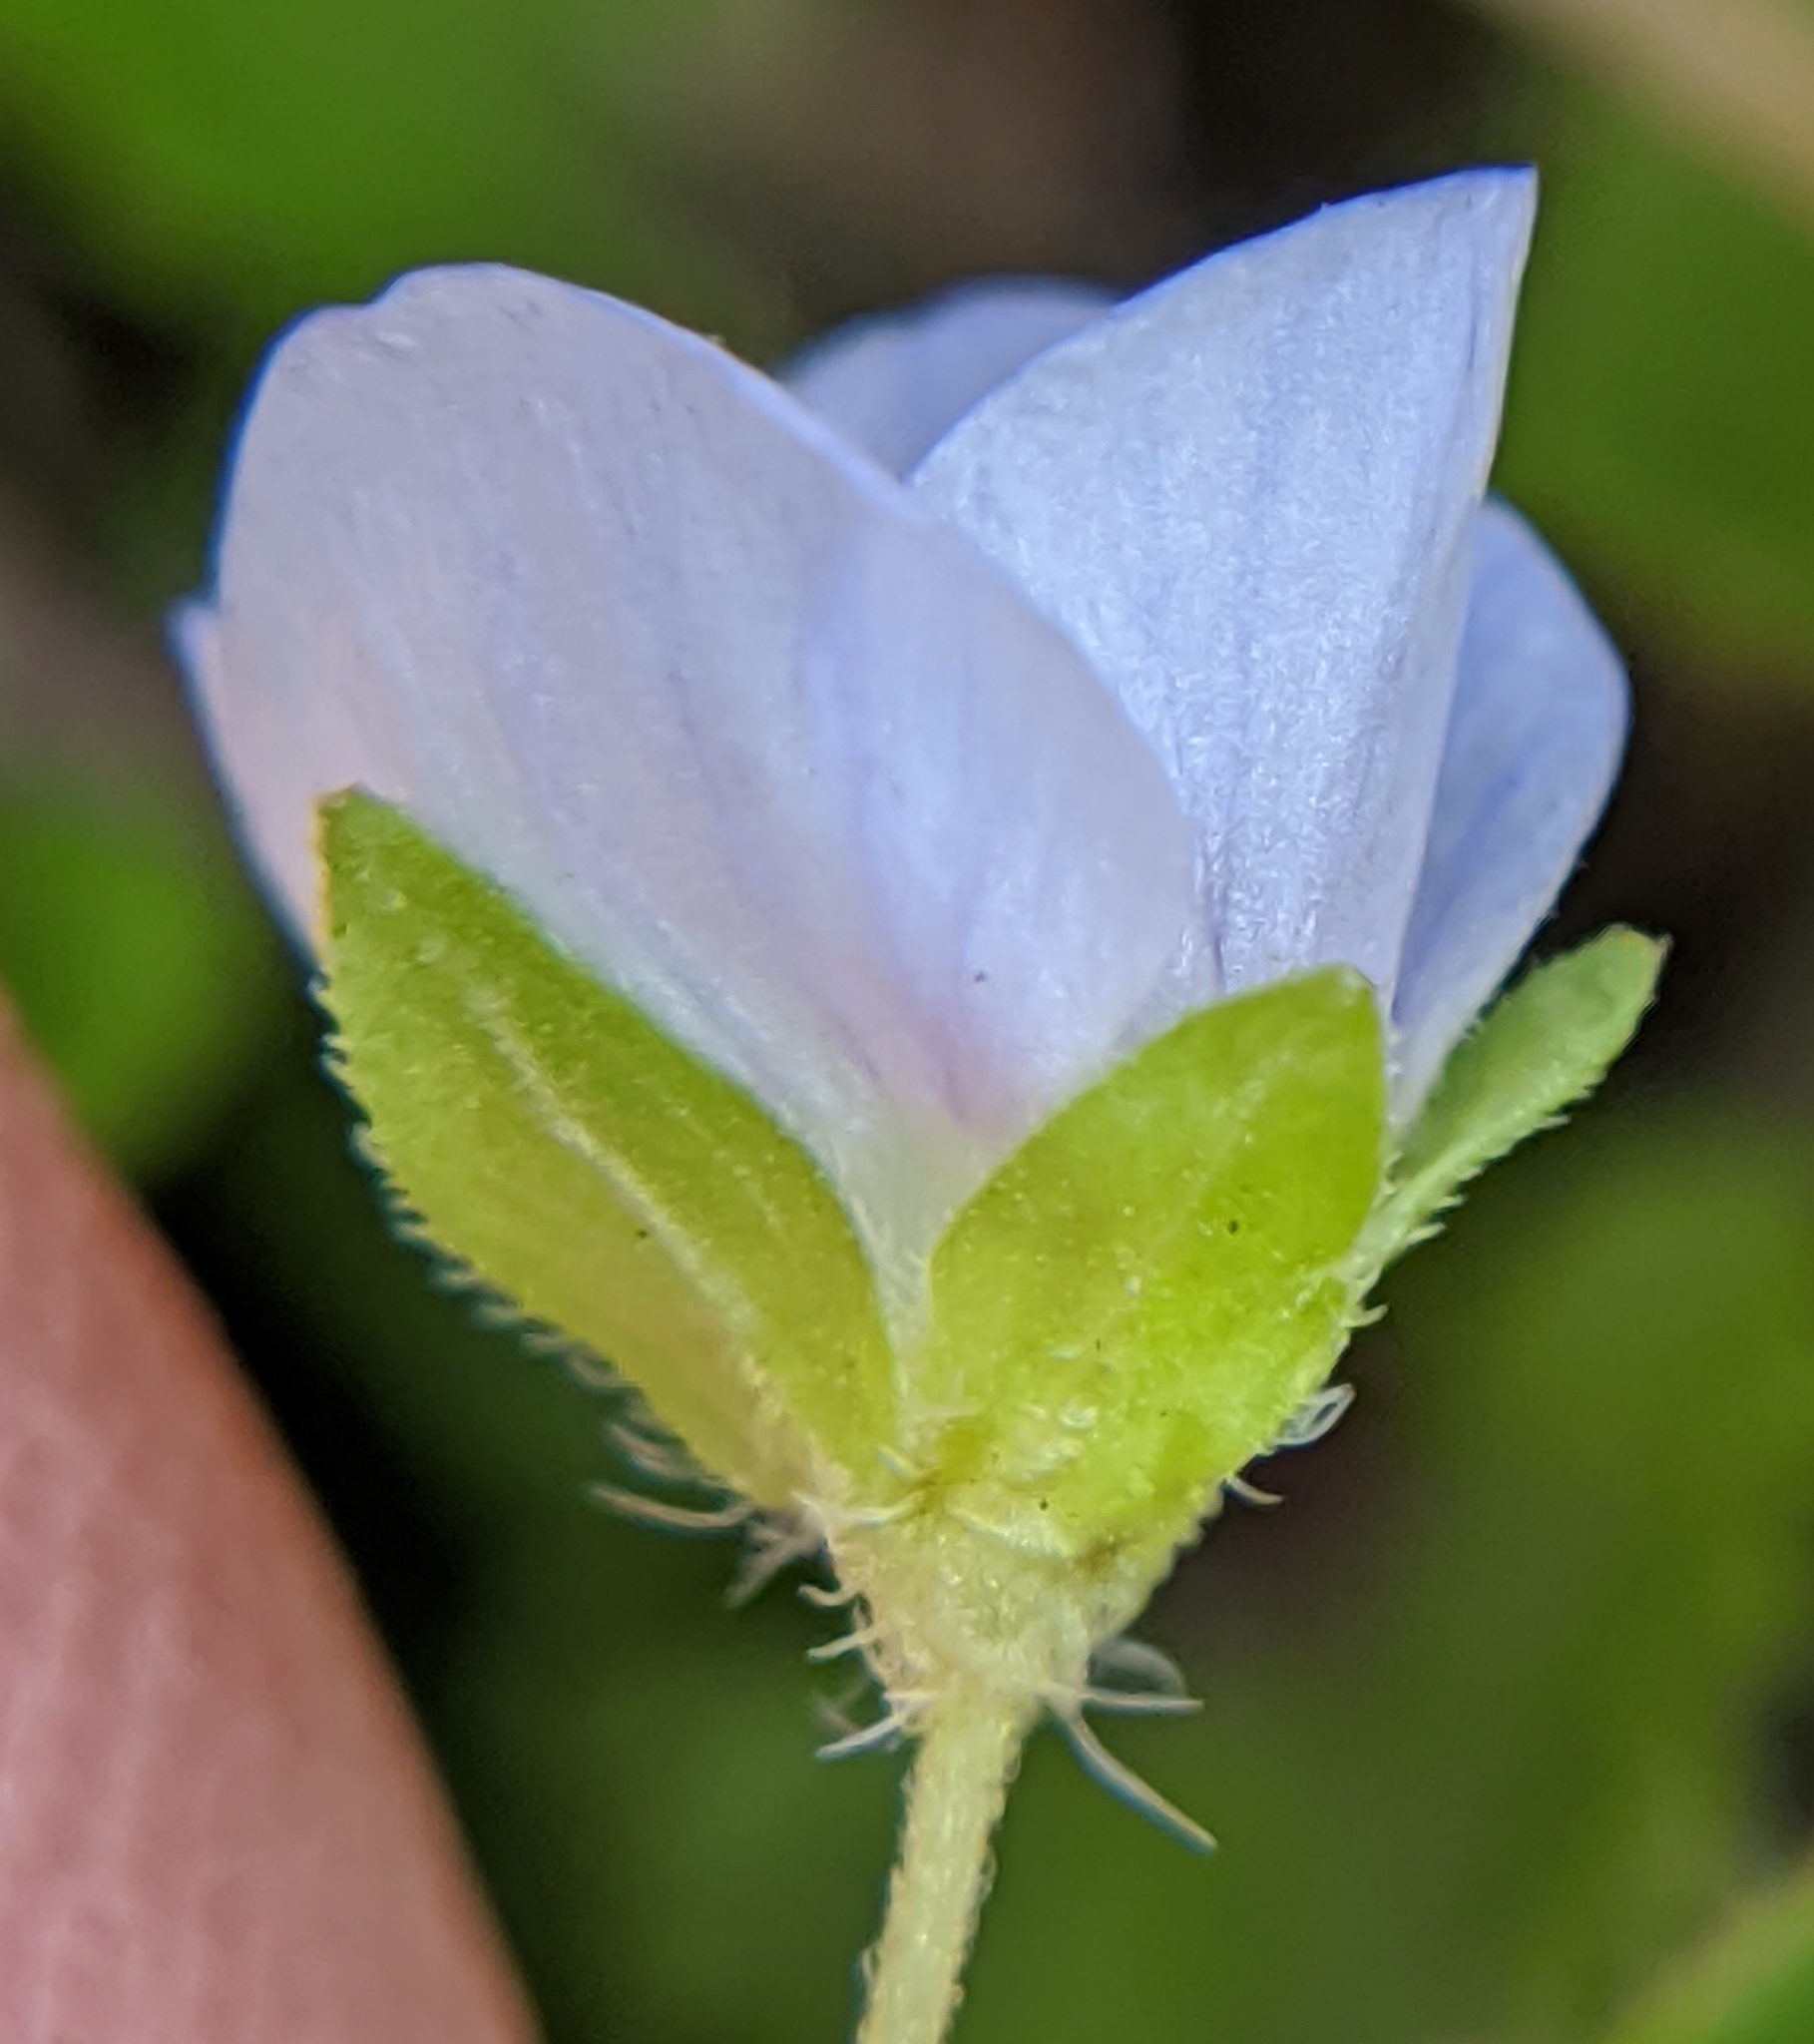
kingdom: Plantae
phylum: Tracheophyta
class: Magnoliopsida
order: Lamiales
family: Plantaginaceae
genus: Veronica
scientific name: Veronica persica
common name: Common field-speedwell
